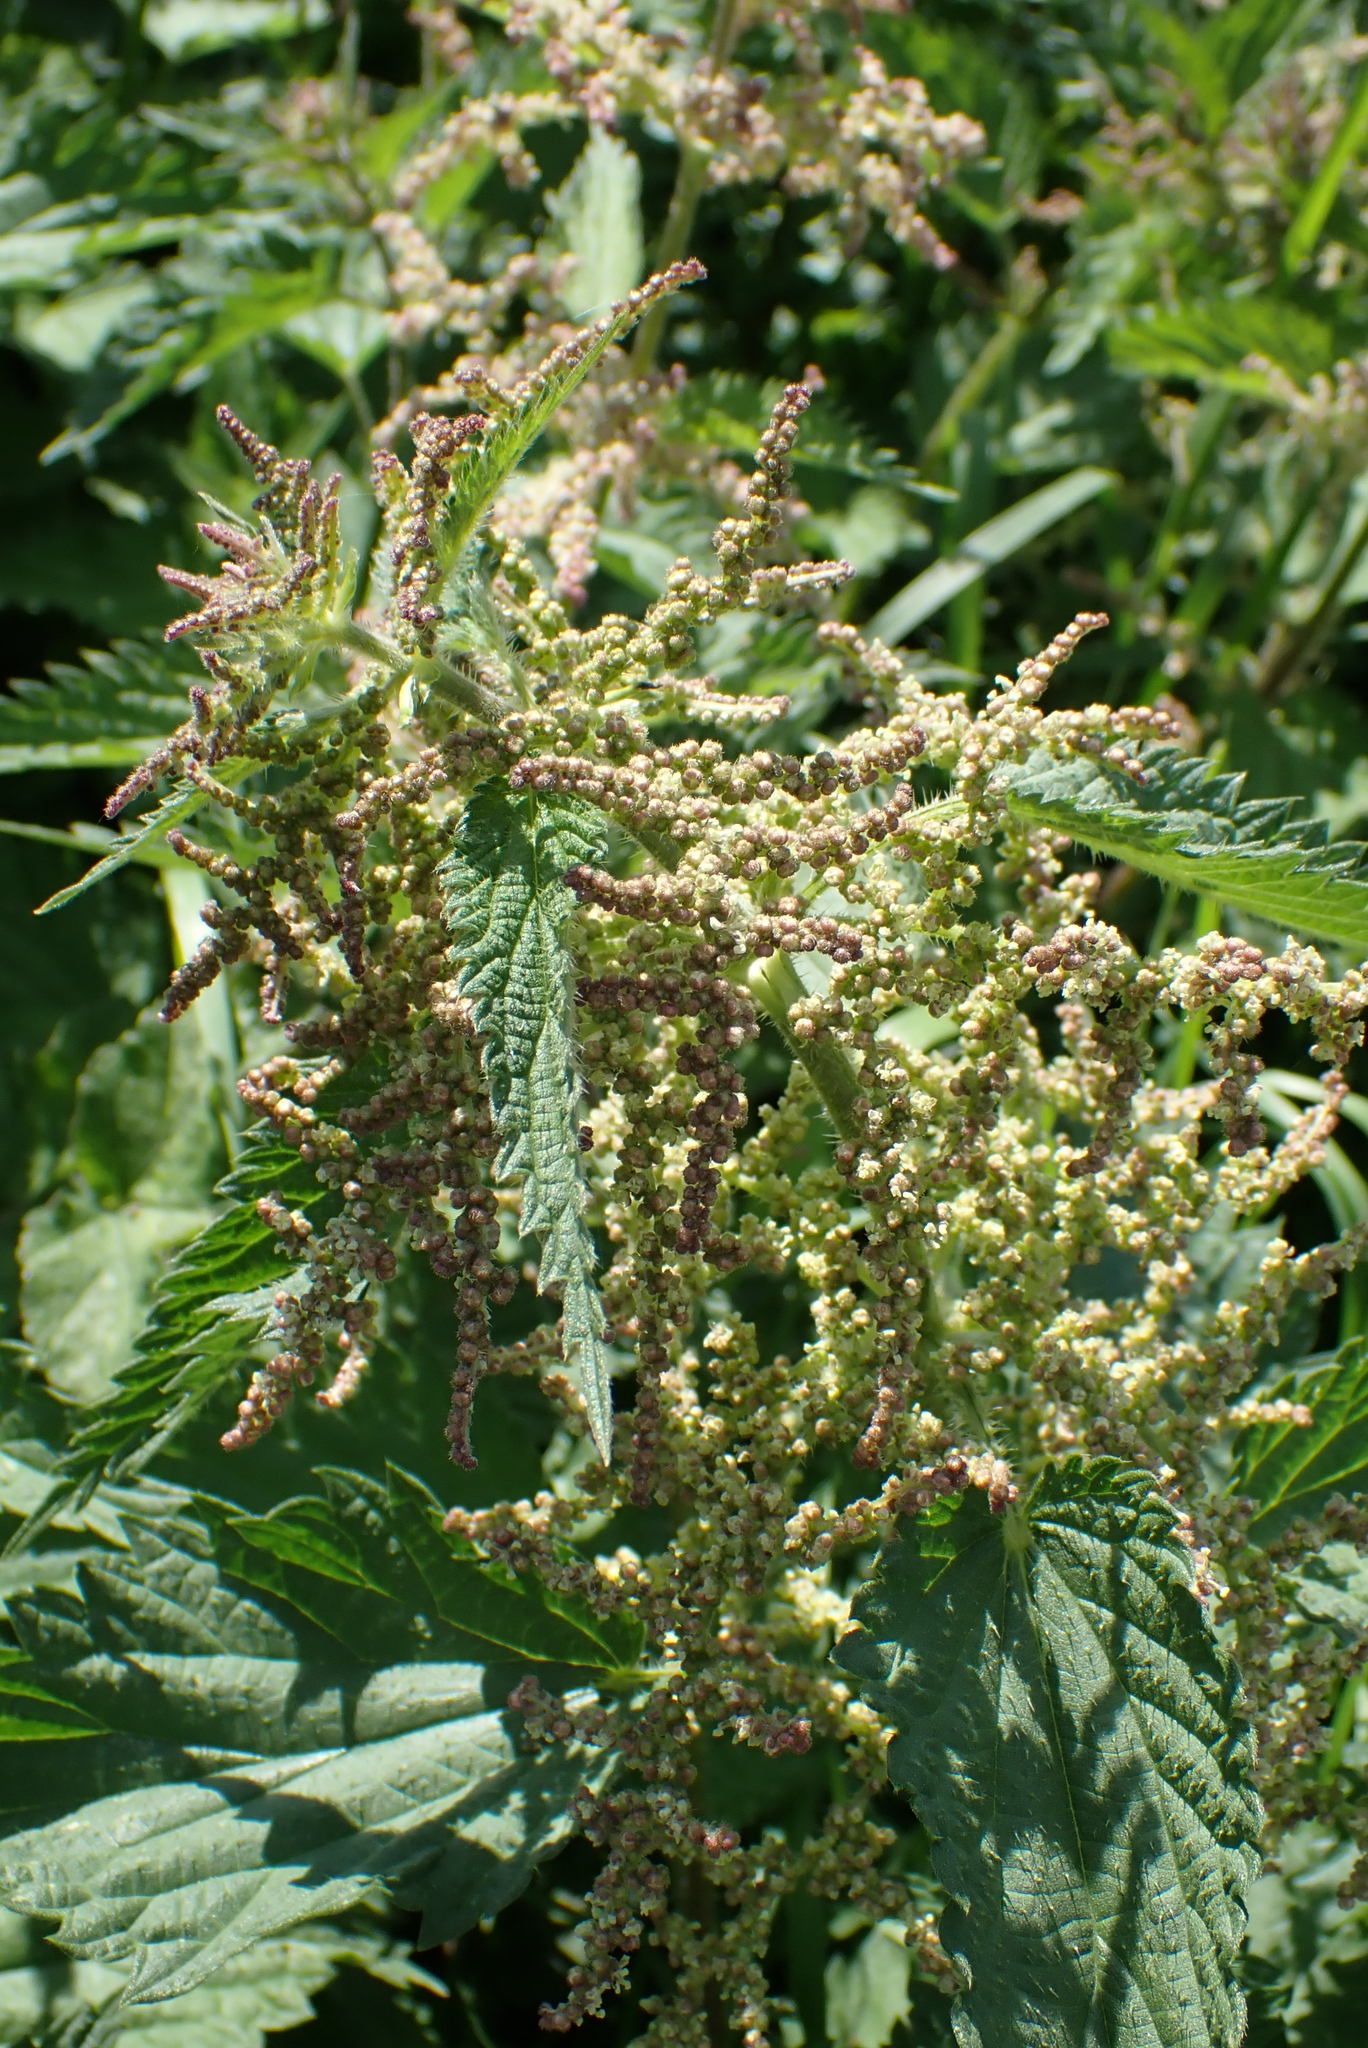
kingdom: Plantae
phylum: Tracheophyta
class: Magnoliopsida
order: Rosales
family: Urticaceae
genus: Urtica
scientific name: Urtica dioica
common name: Common nettle
